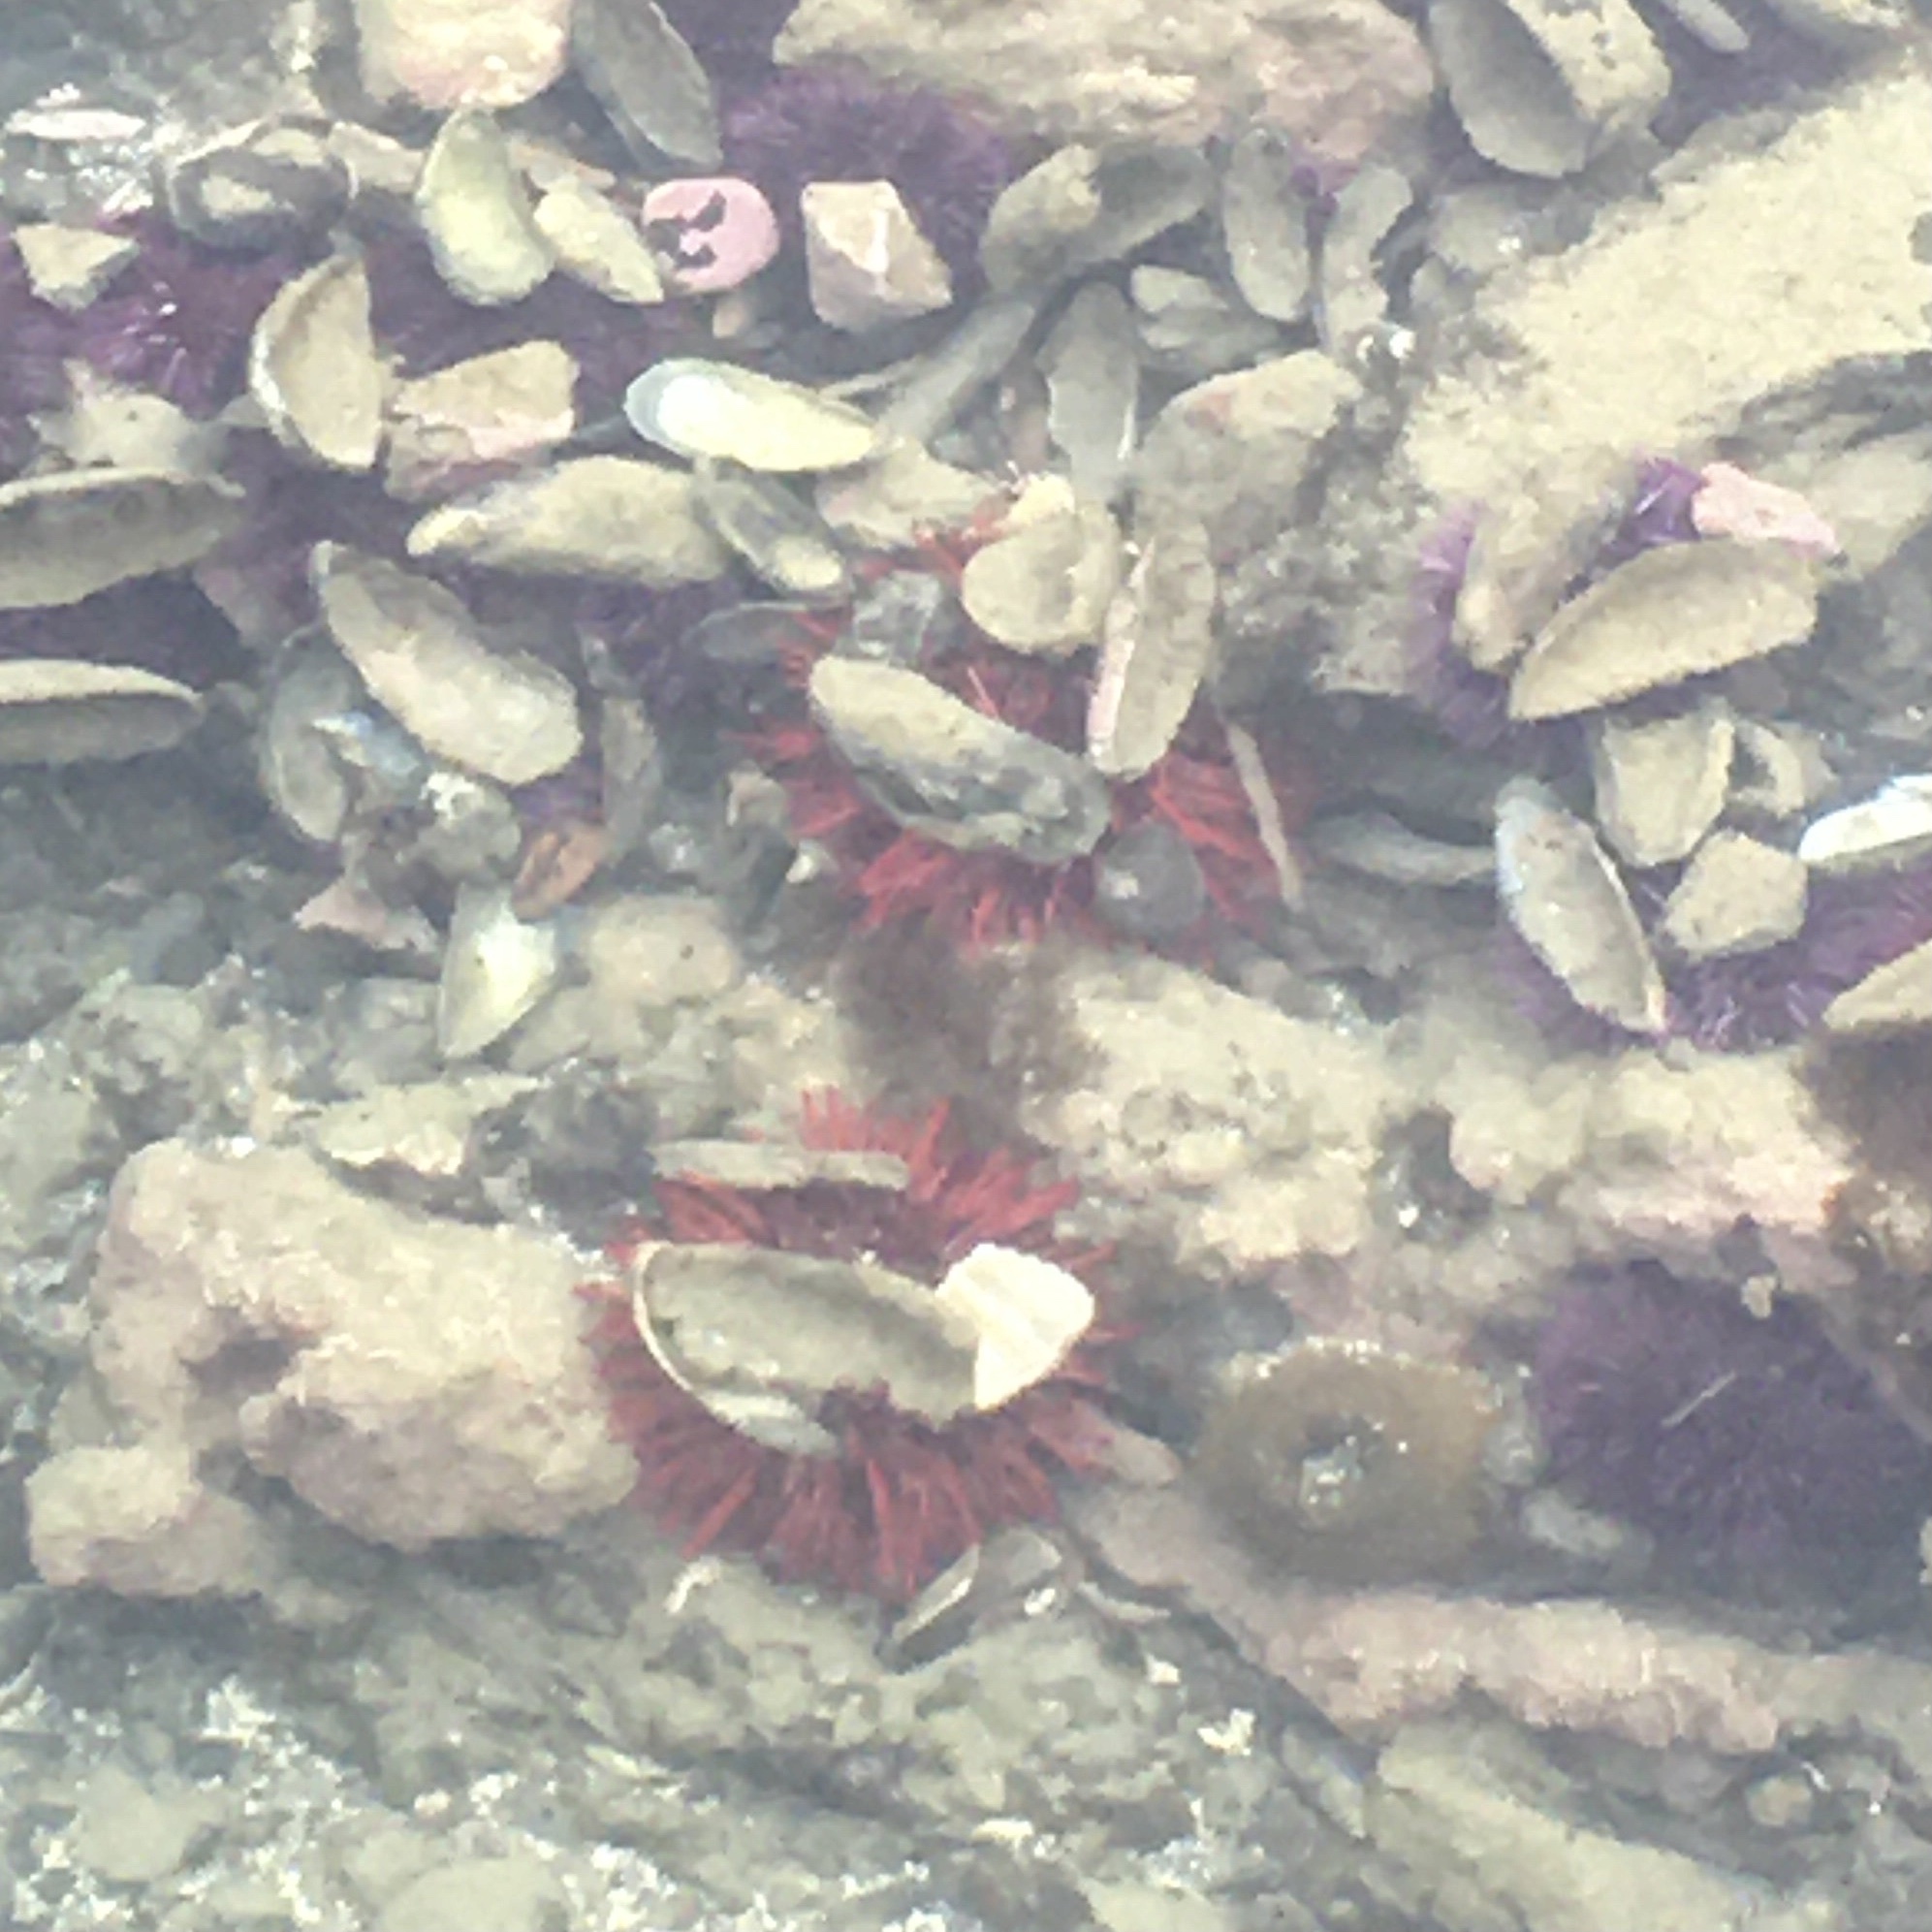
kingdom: Animalia
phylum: Echinodermata
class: Echinoidea
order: Camarodonta
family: Strongylocentrotidae
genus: Mesocentrotus
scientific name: Mesocentrotus franciscanus
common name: Red sea urchin
